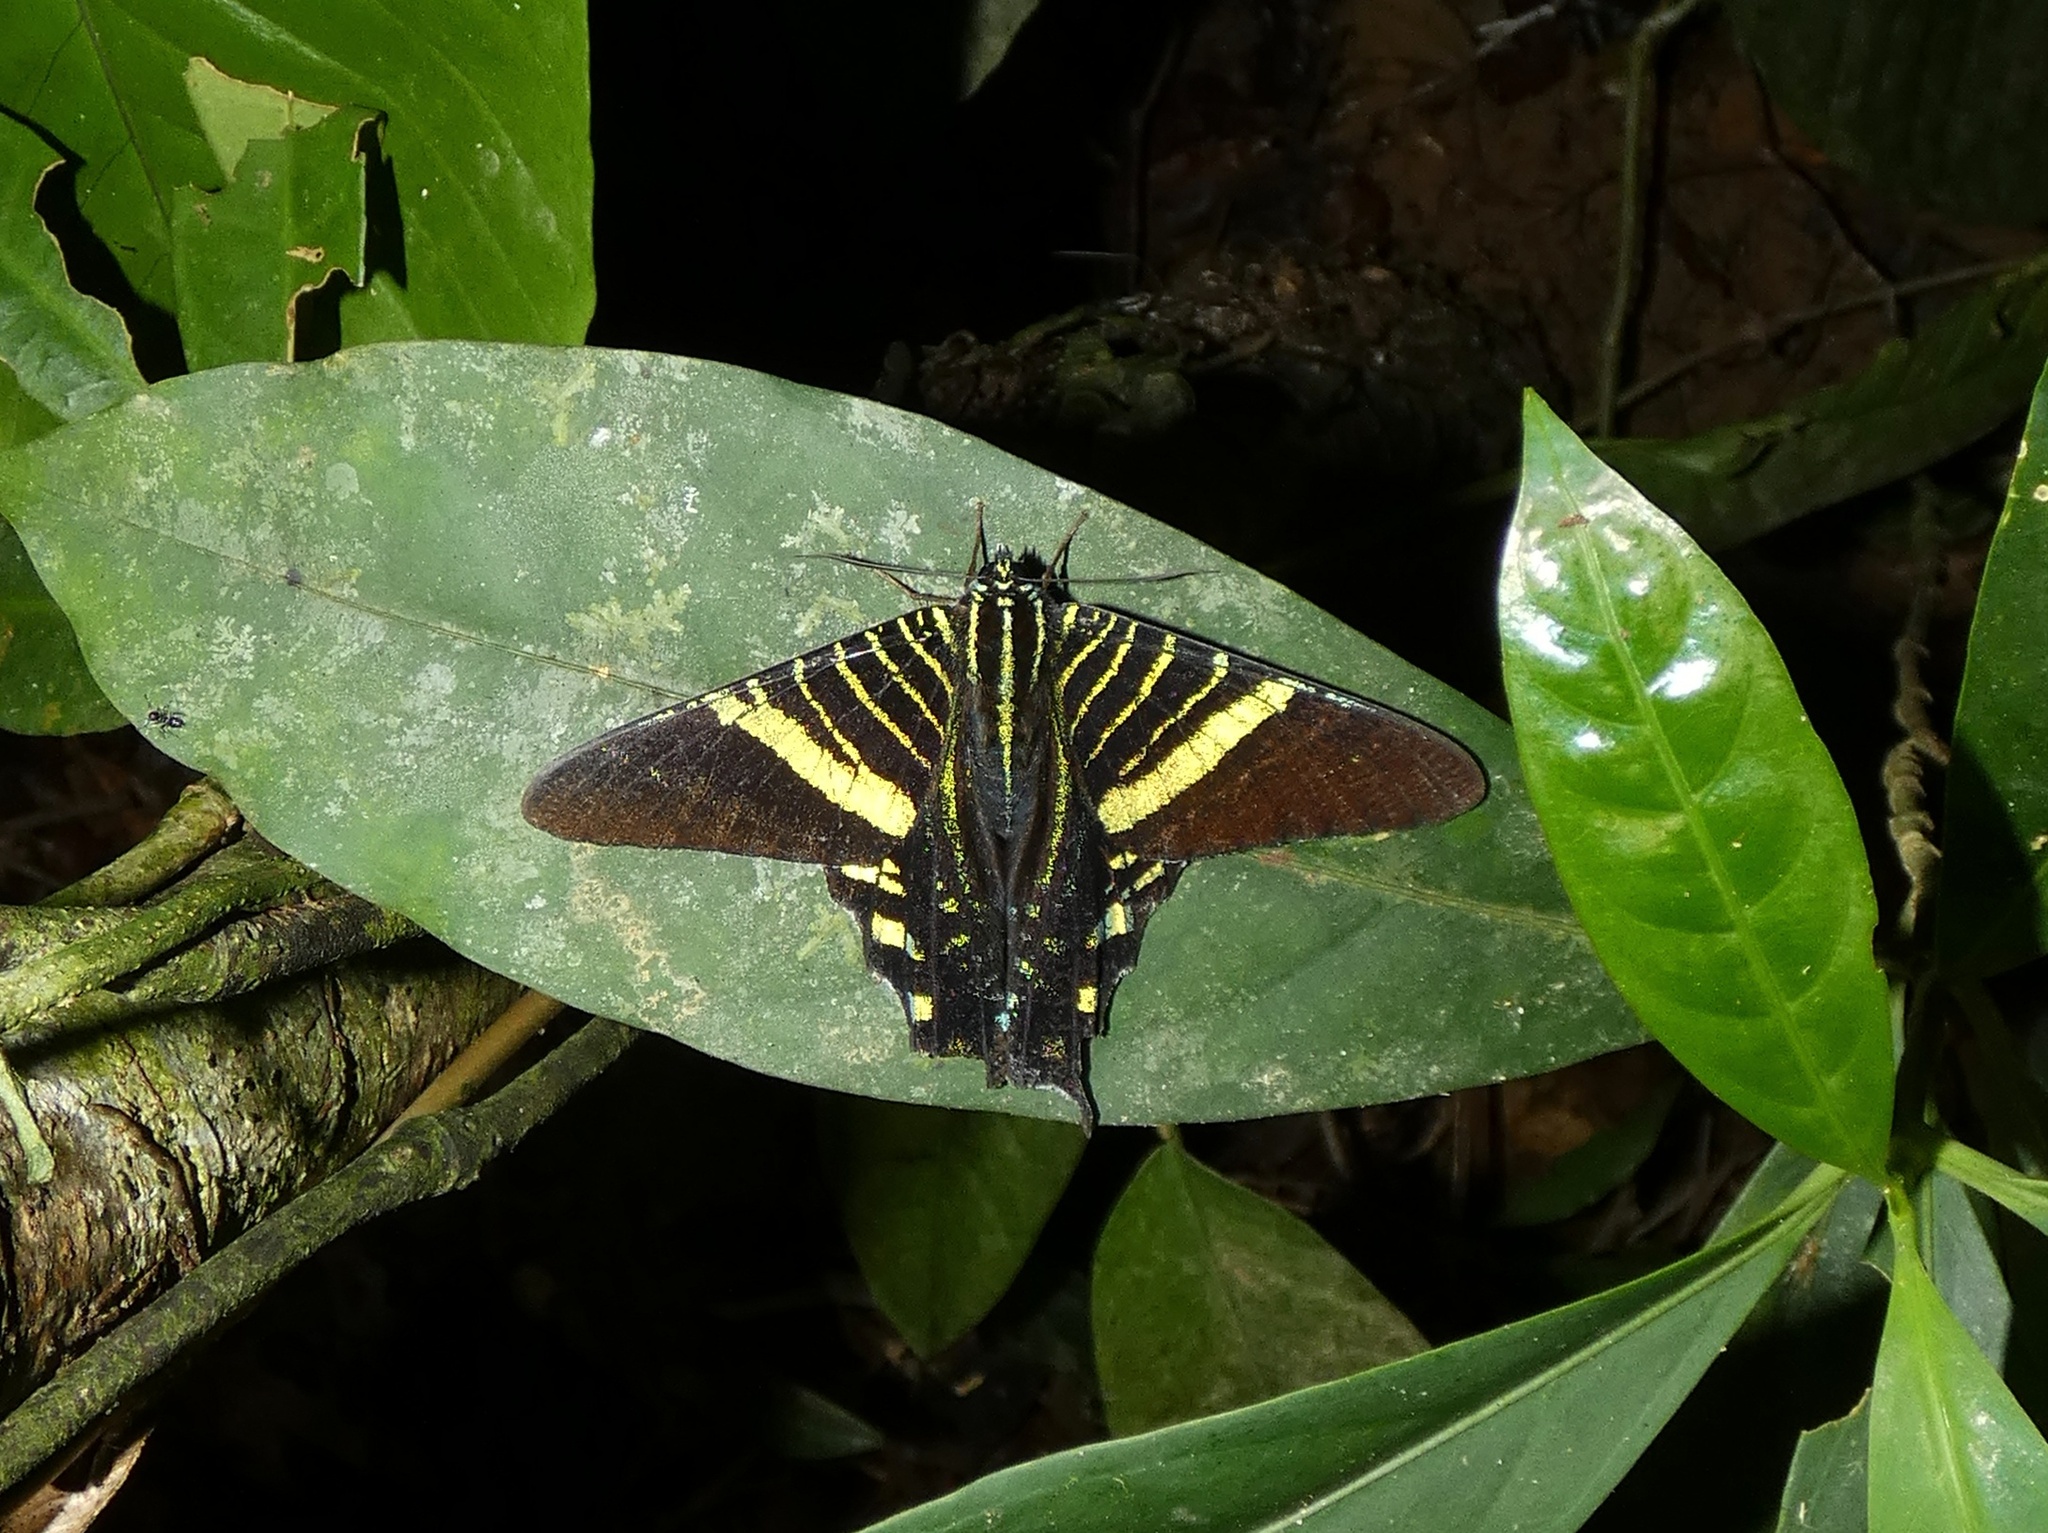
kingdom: Animalia
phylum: Arthropoda
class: Insecta
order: Lepidoptera
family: Uraniidae
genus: Urania
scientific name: Urania fulgens
